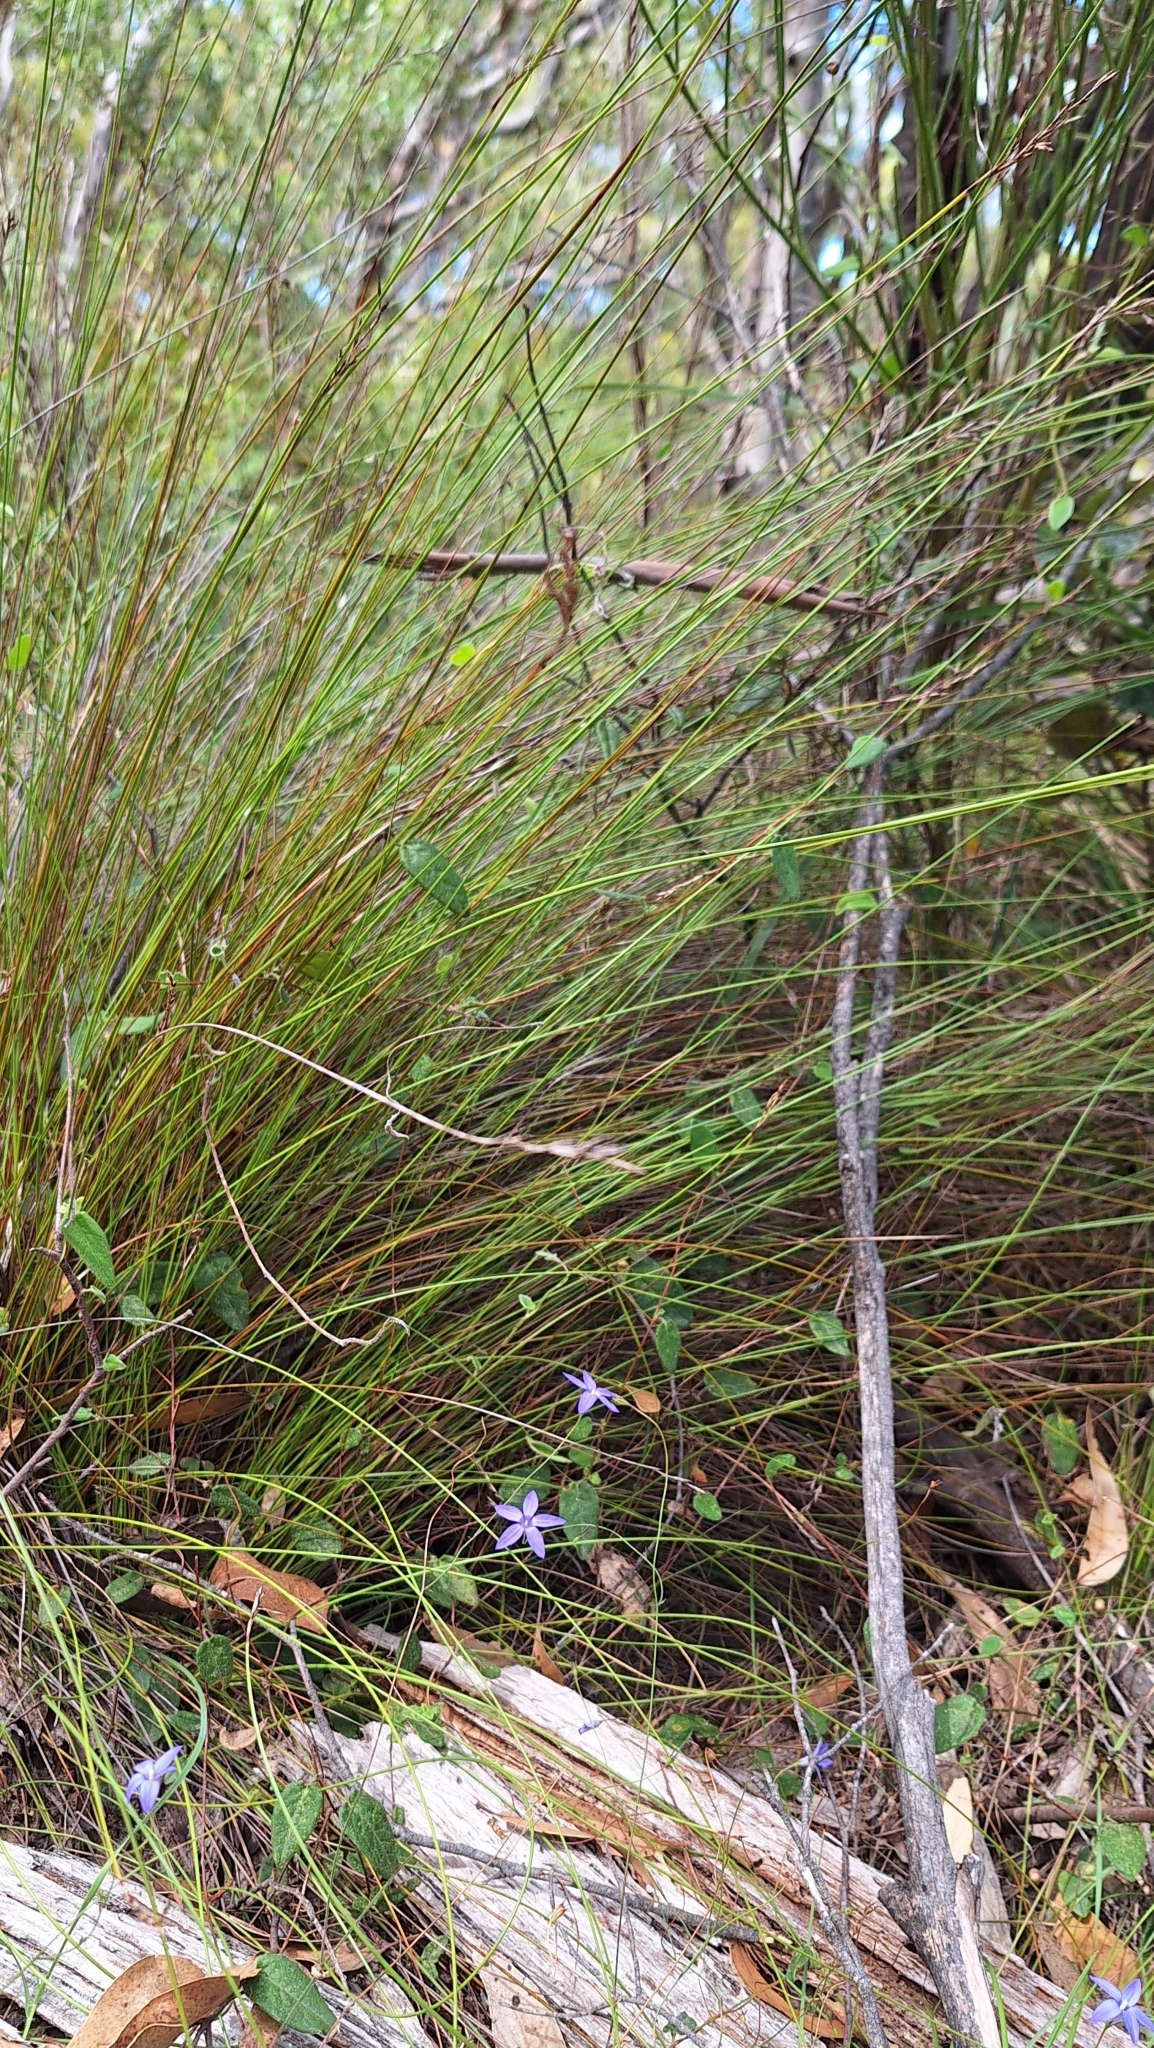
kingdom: Plantae
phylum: Tracheophyta
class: Liliopsida
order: Poales
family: Cyperaceae
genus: Lepidosperma
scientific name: Lepidosperma semiteres
